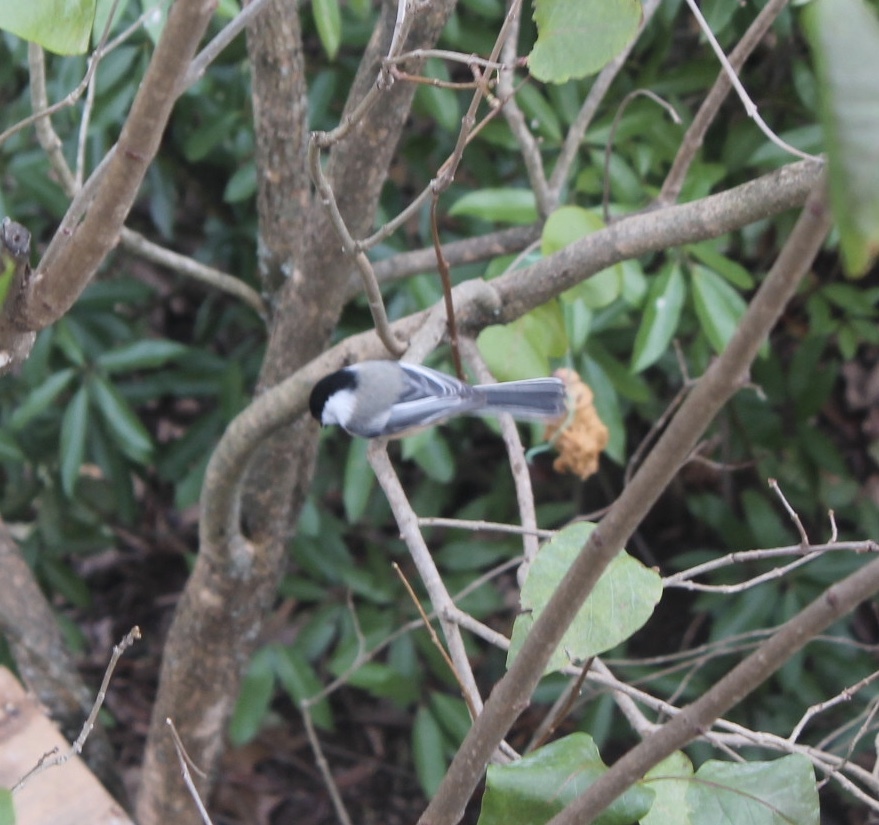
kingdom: Animalia
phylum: Chordata
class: Aves
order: Passeriformes
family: Paridae
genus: Poecile
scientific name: Poecile atricapillus
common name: Black-capped chickadee
